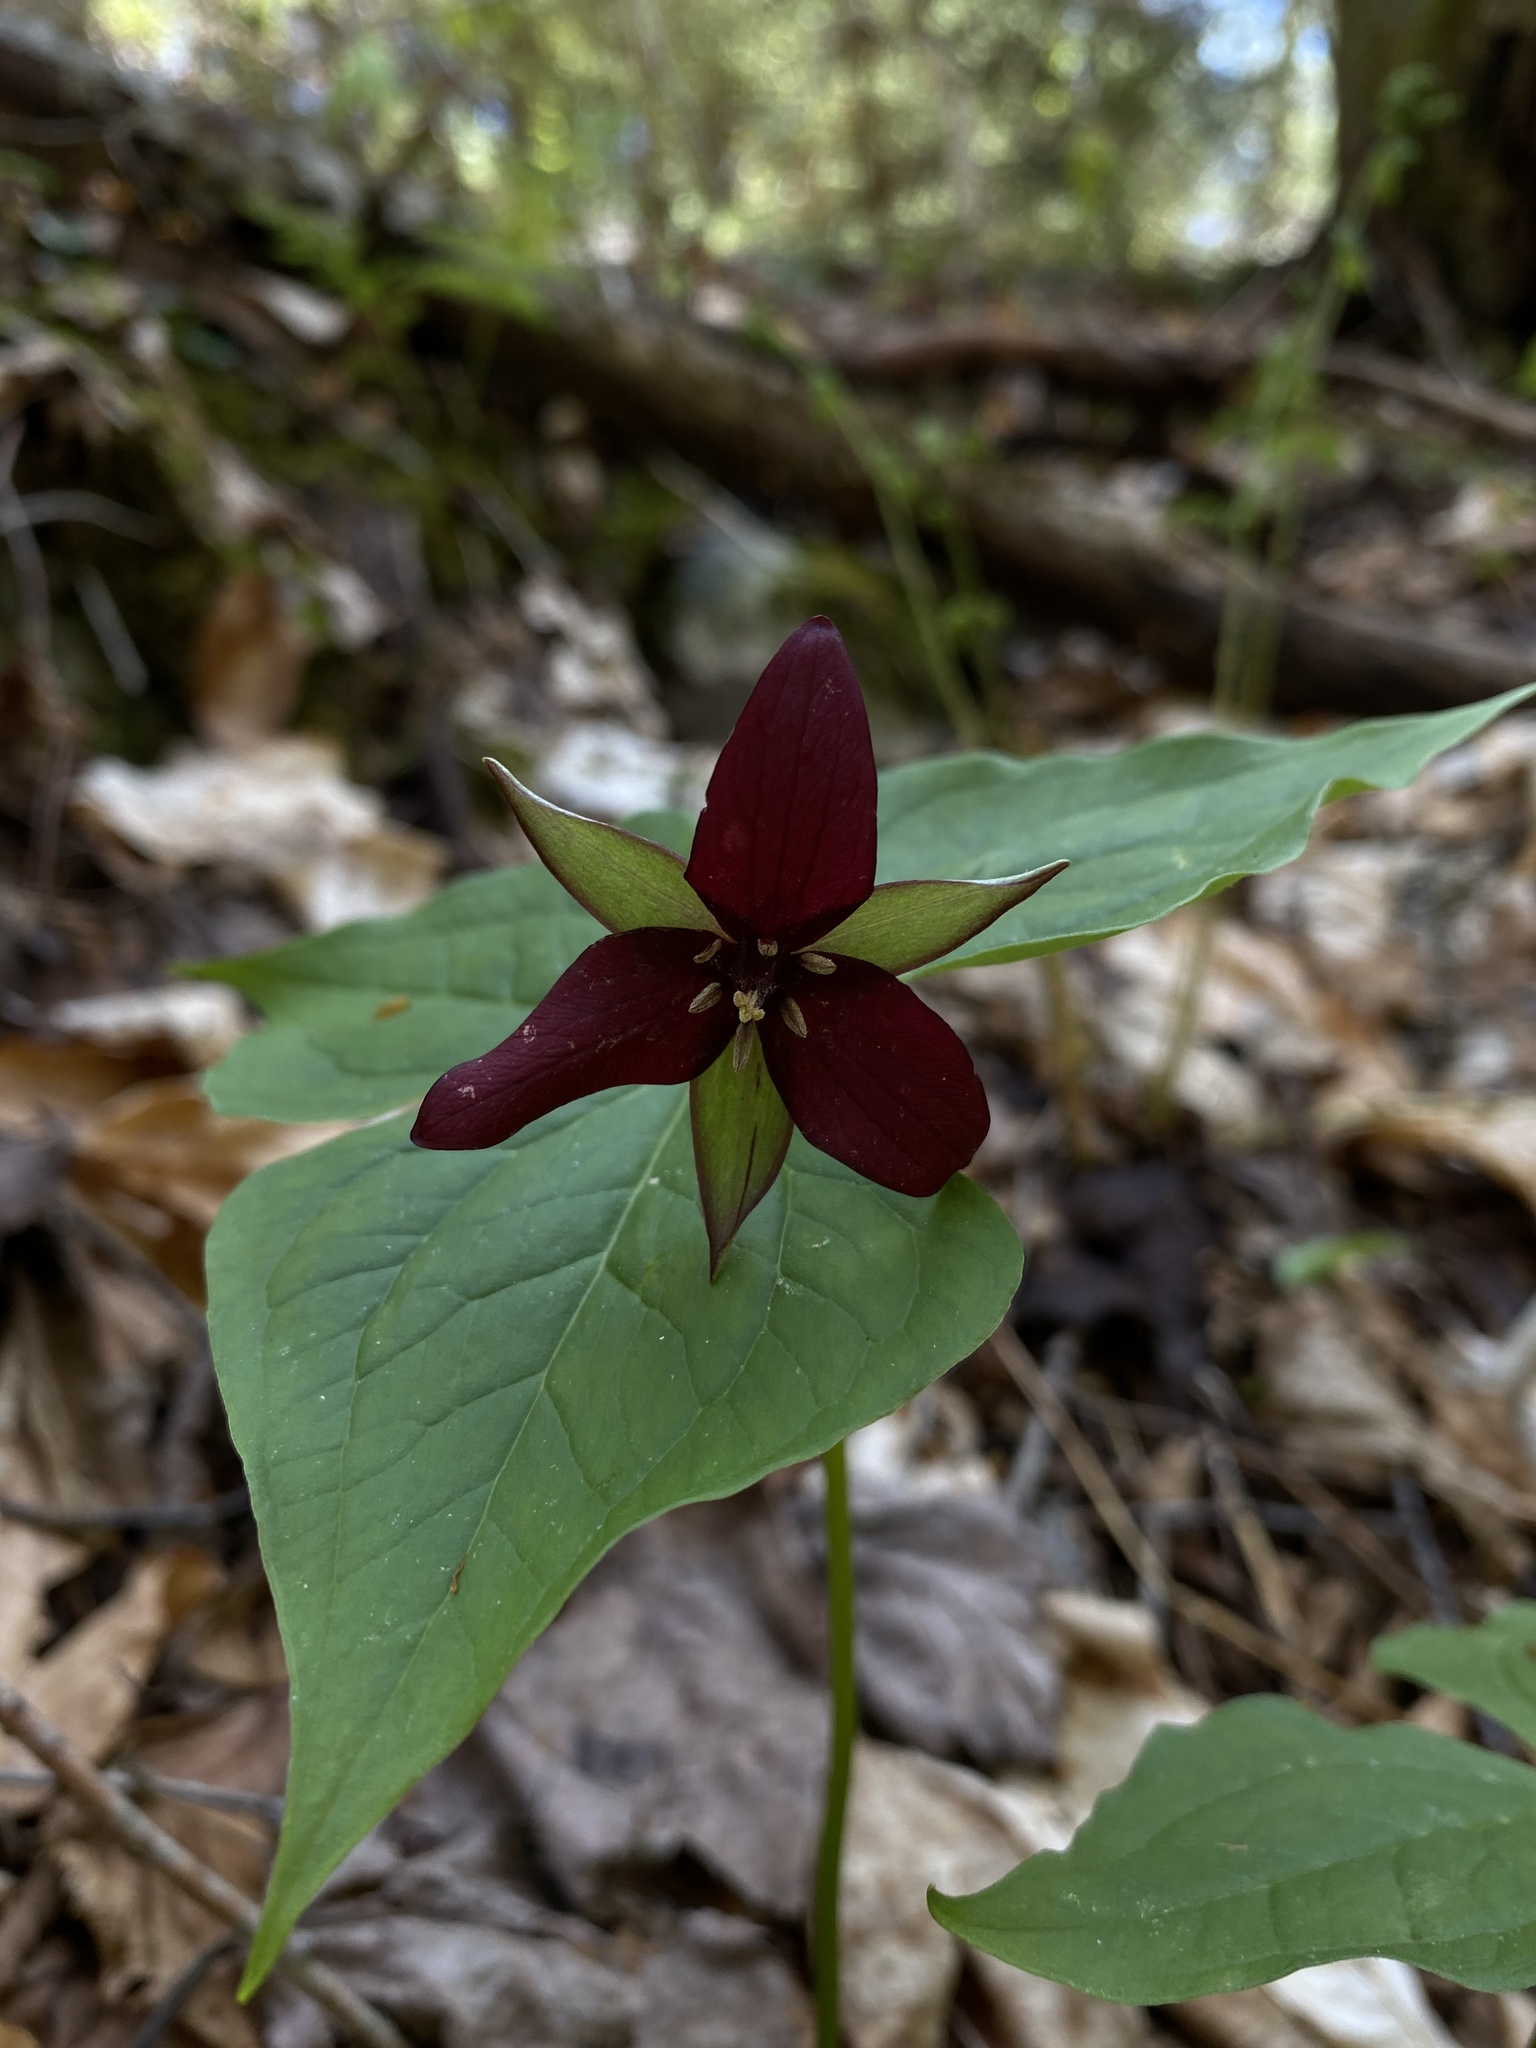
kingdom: Plantae
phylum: Tracheophyta
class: Liliopsida
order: Liliales
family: Melanthiaceae
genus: Trillium
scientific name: Trillium erectum
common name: Purple trillium
